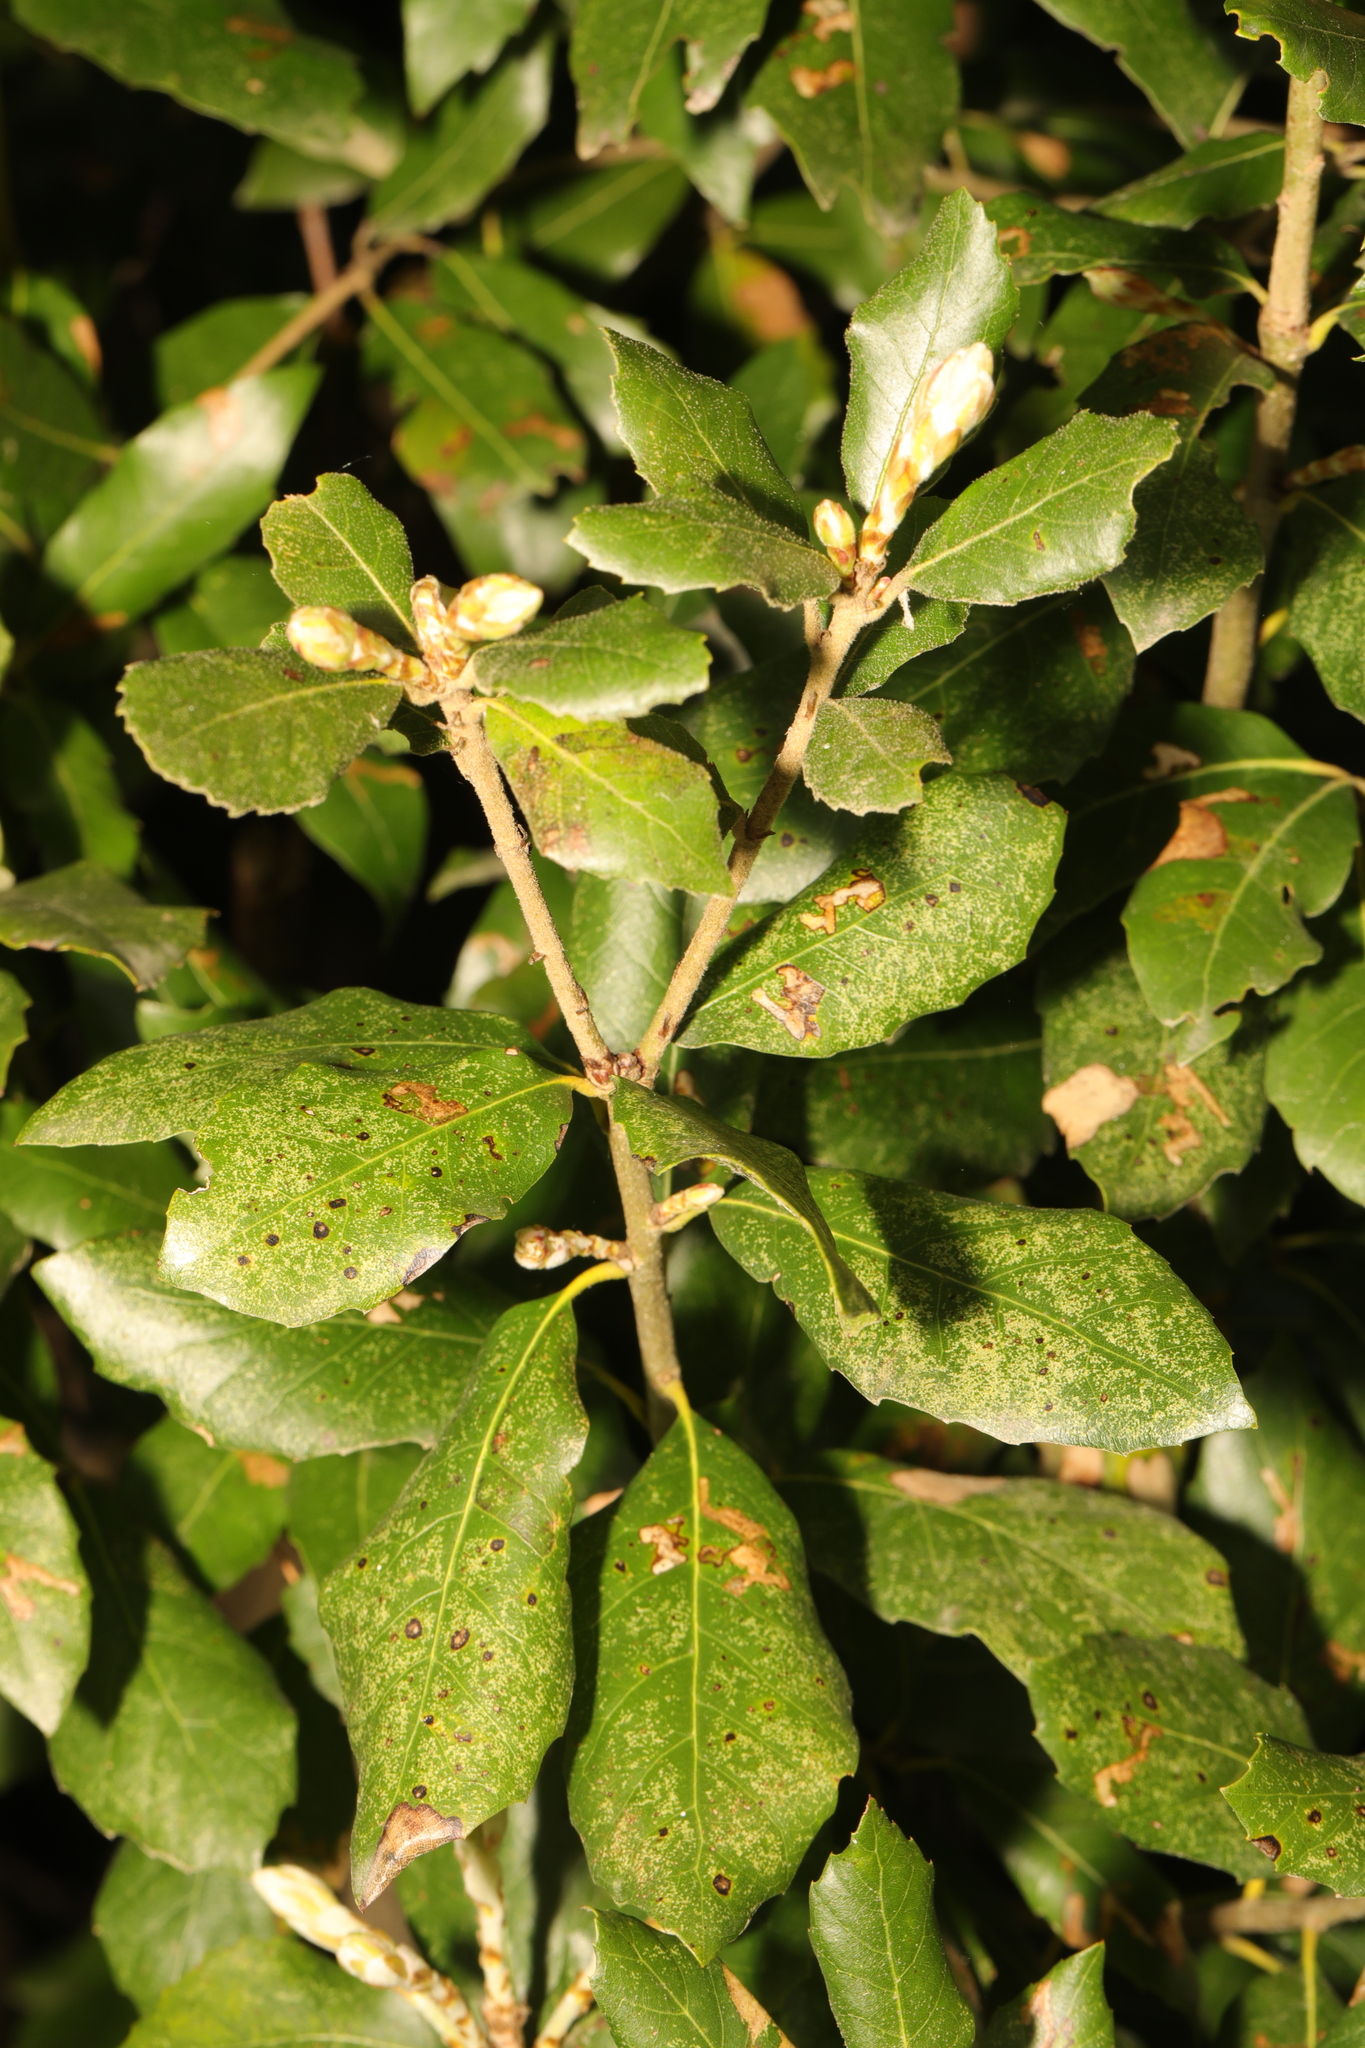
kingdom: Plantae
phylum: Tracheophyta
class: Magnoliopsida
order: Fagales
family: Fagaceae
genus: Quercus
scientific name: Quercus ilex
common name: Evergreen oak
